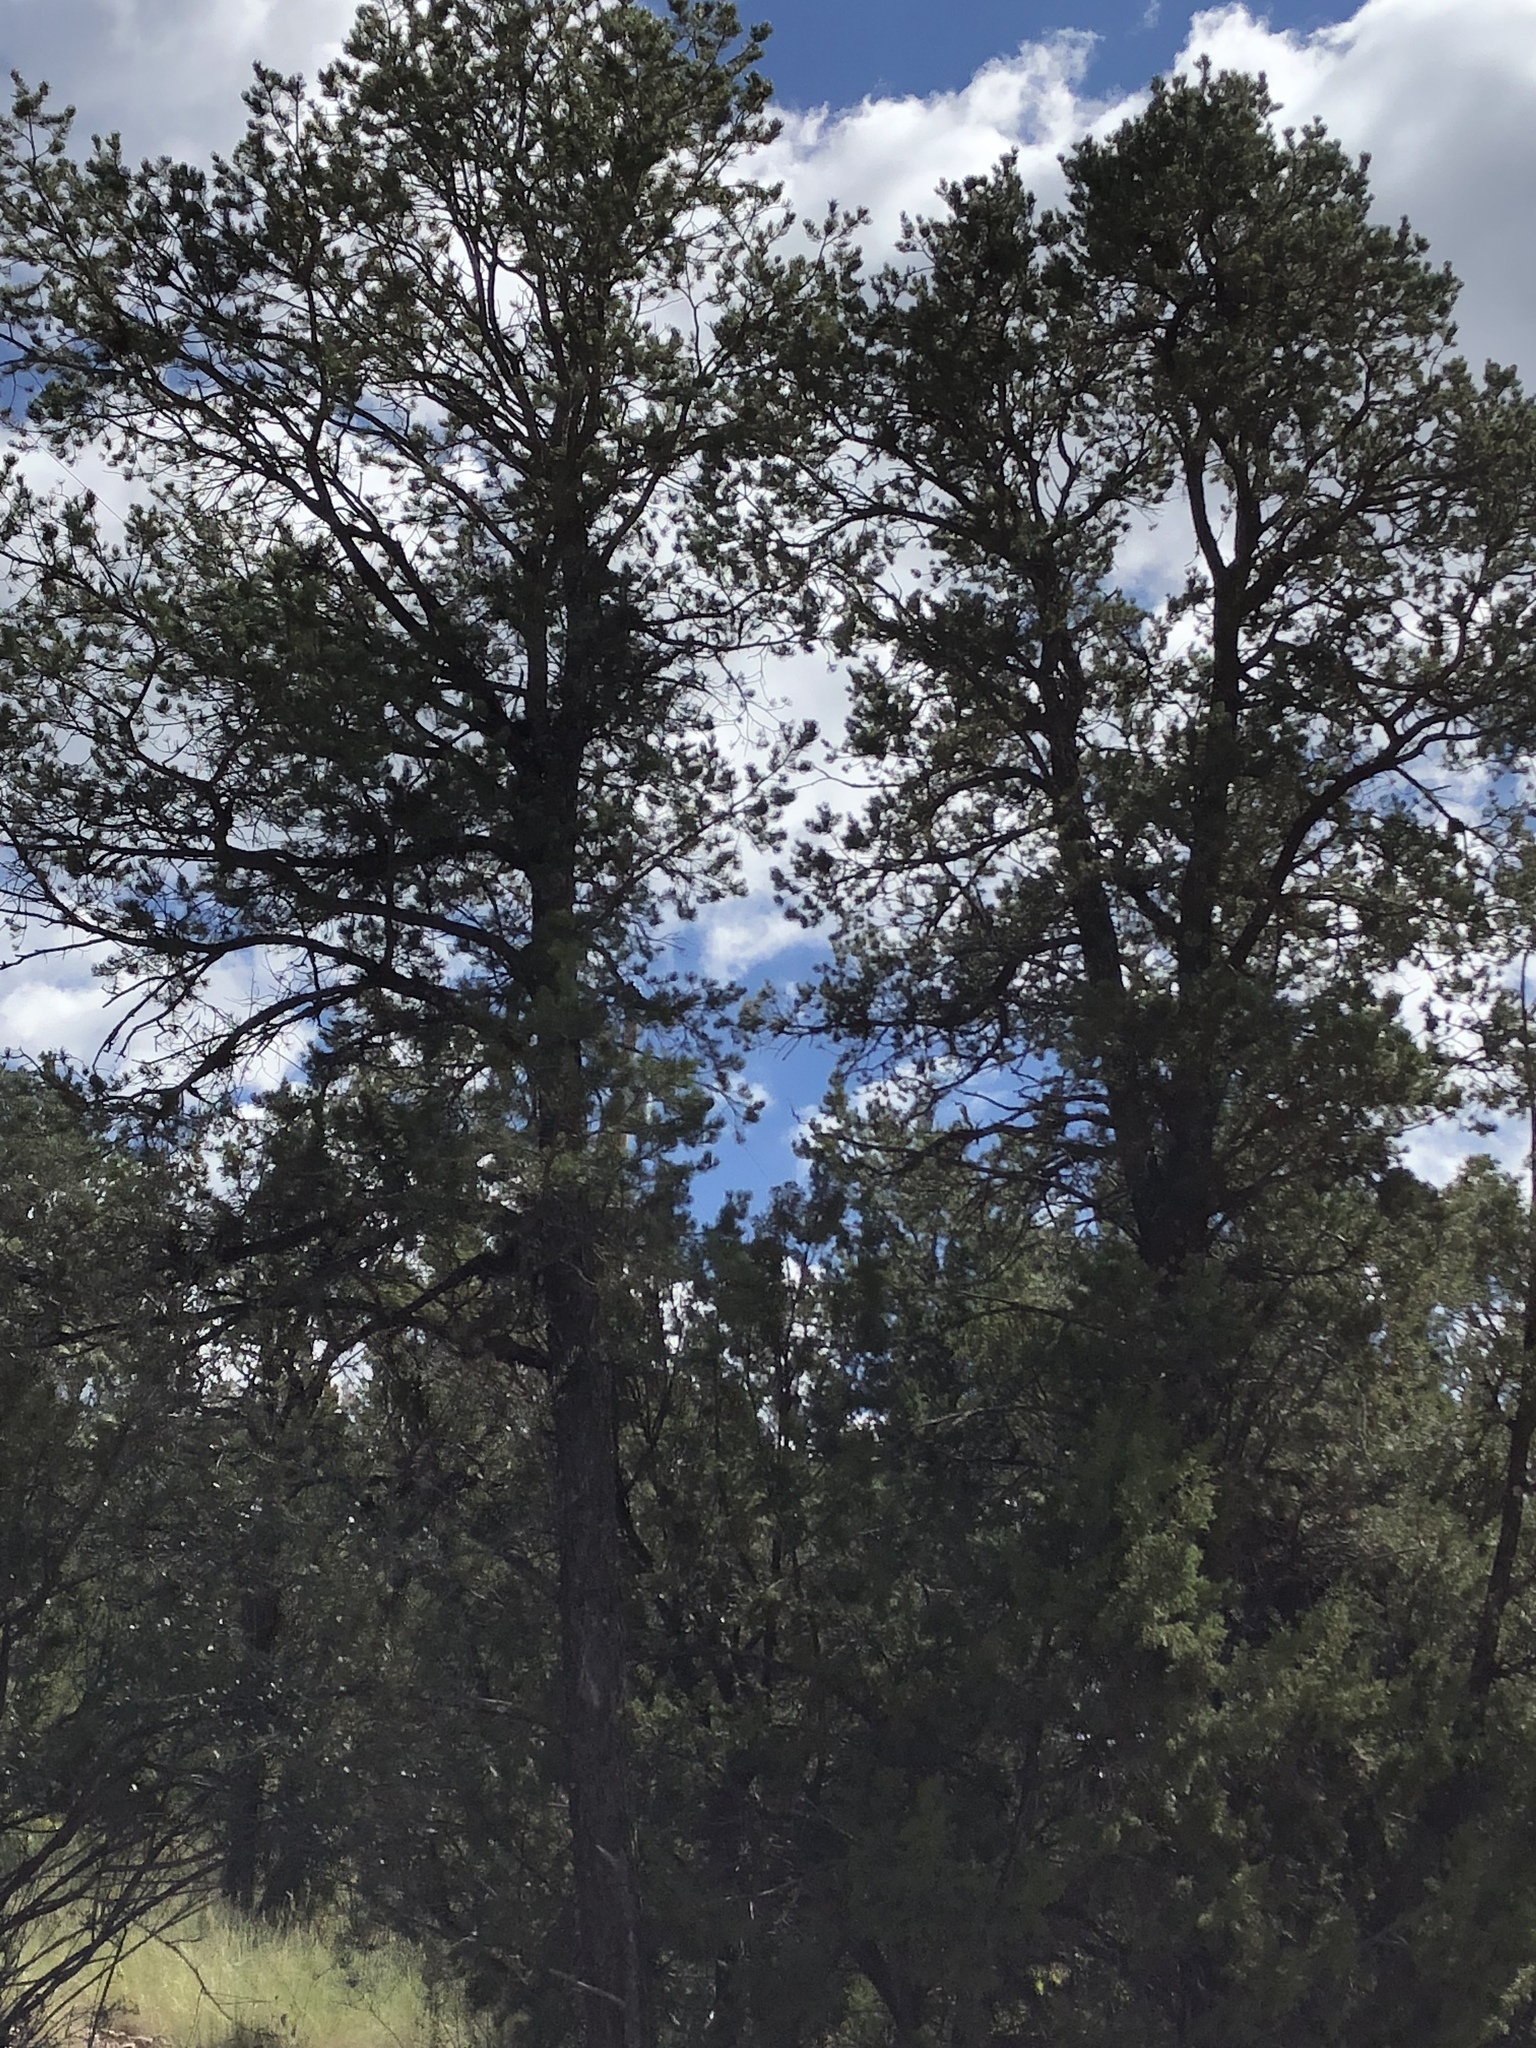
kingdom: Plantae
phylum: Tracheophyta
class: Pinopsida
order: Pinales
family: Pinaceae
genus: Pinus
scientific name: Pinus edulis
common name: Colorado pinyon
